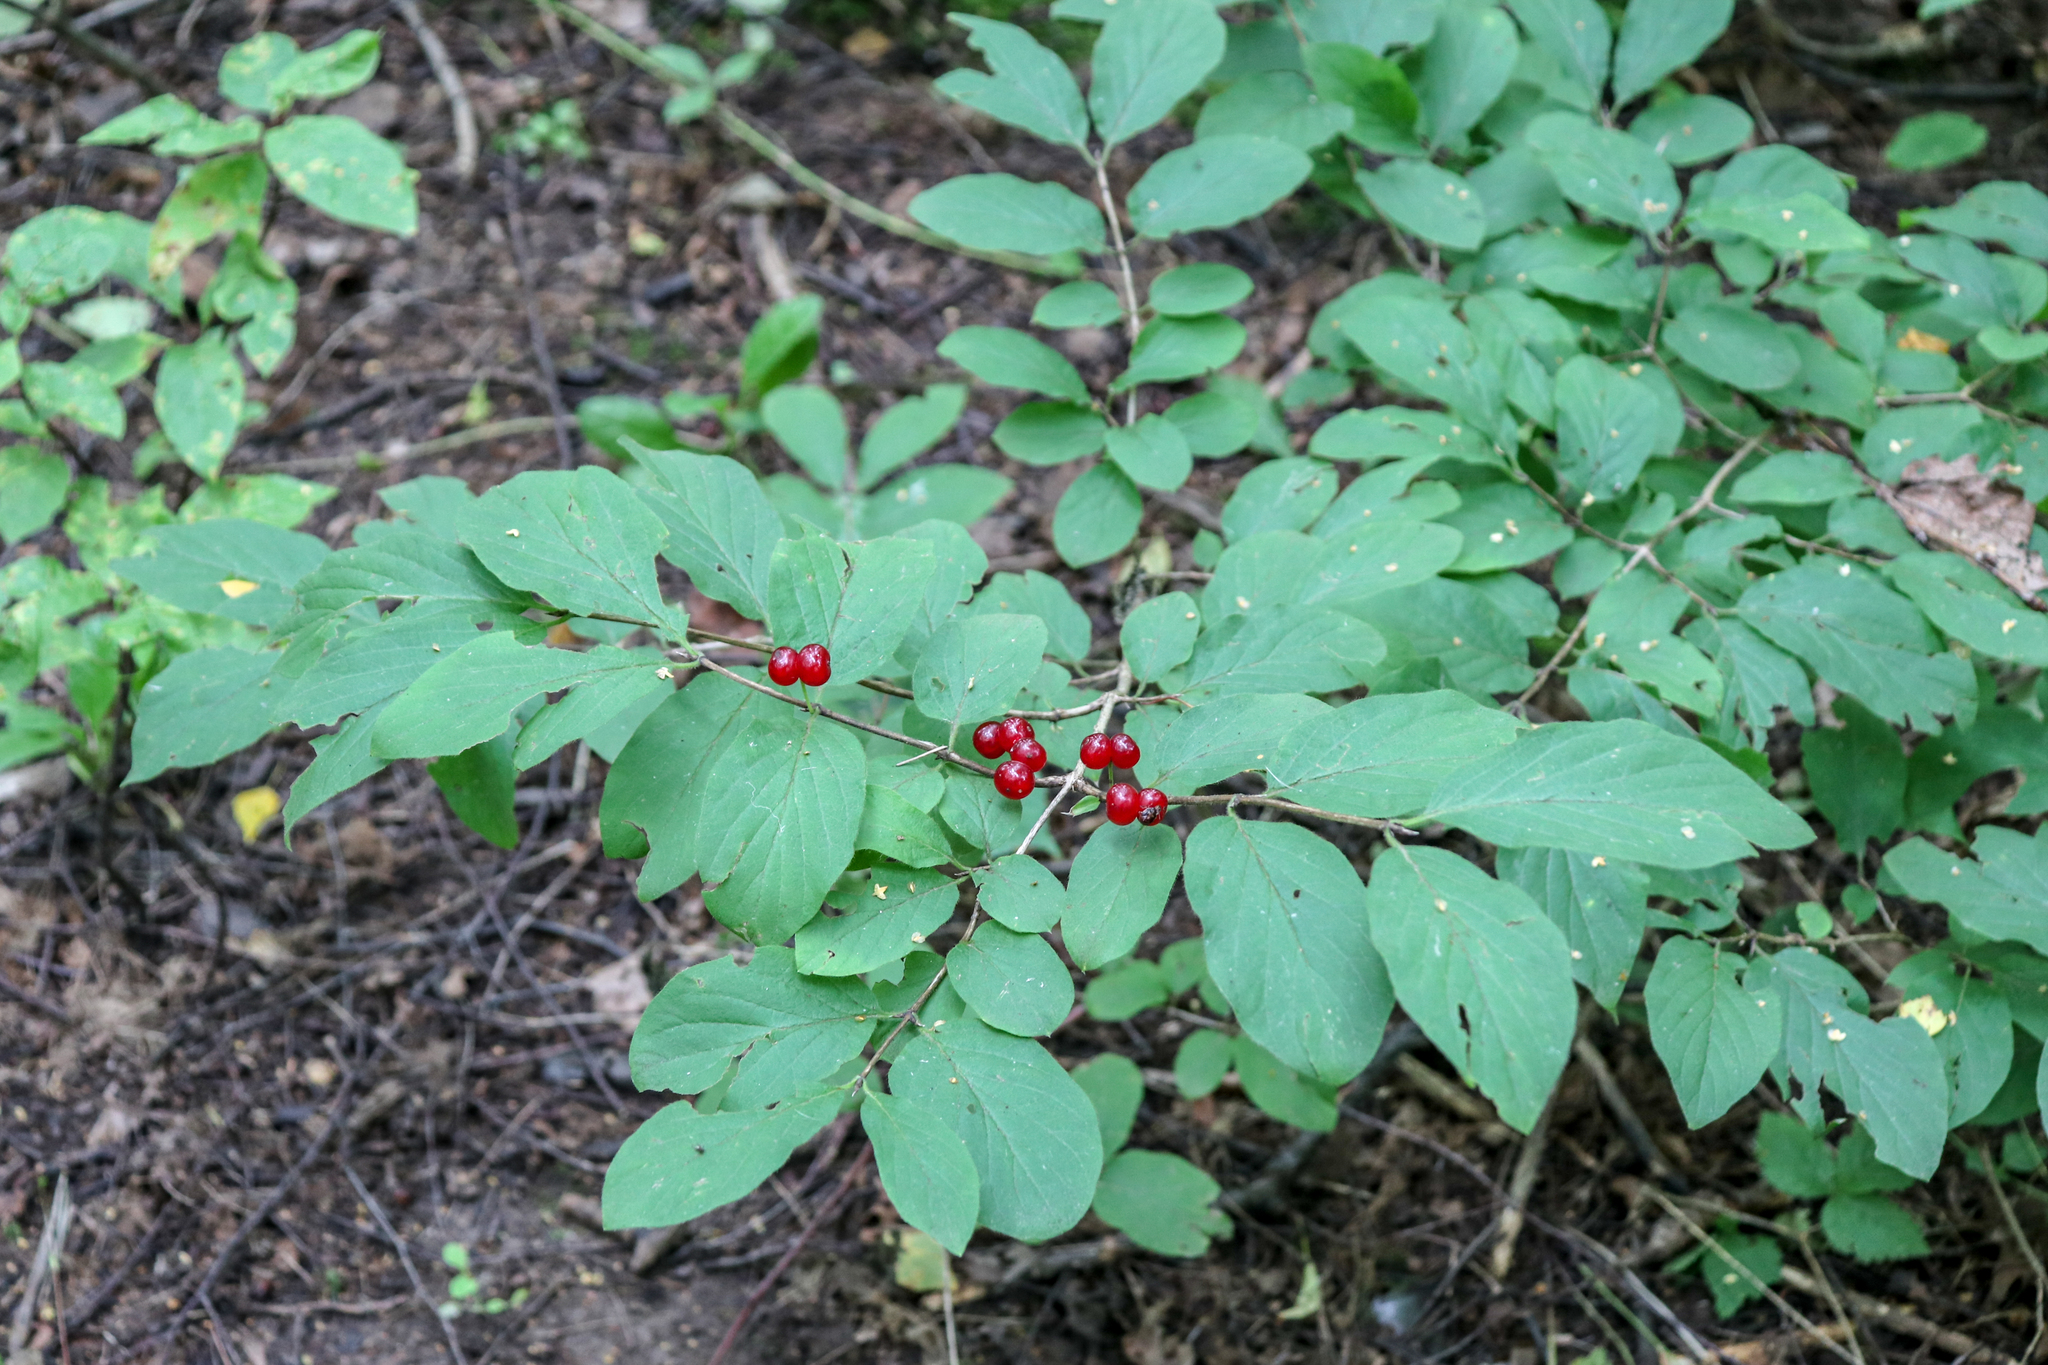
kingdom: Plantae
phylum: Tracheophyta
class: Magnoliopsida
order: Dipsacales
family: Caprifoliaceae
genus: Lonicera
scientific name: Lonicera xylosteum
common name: Fly honeysuckle
